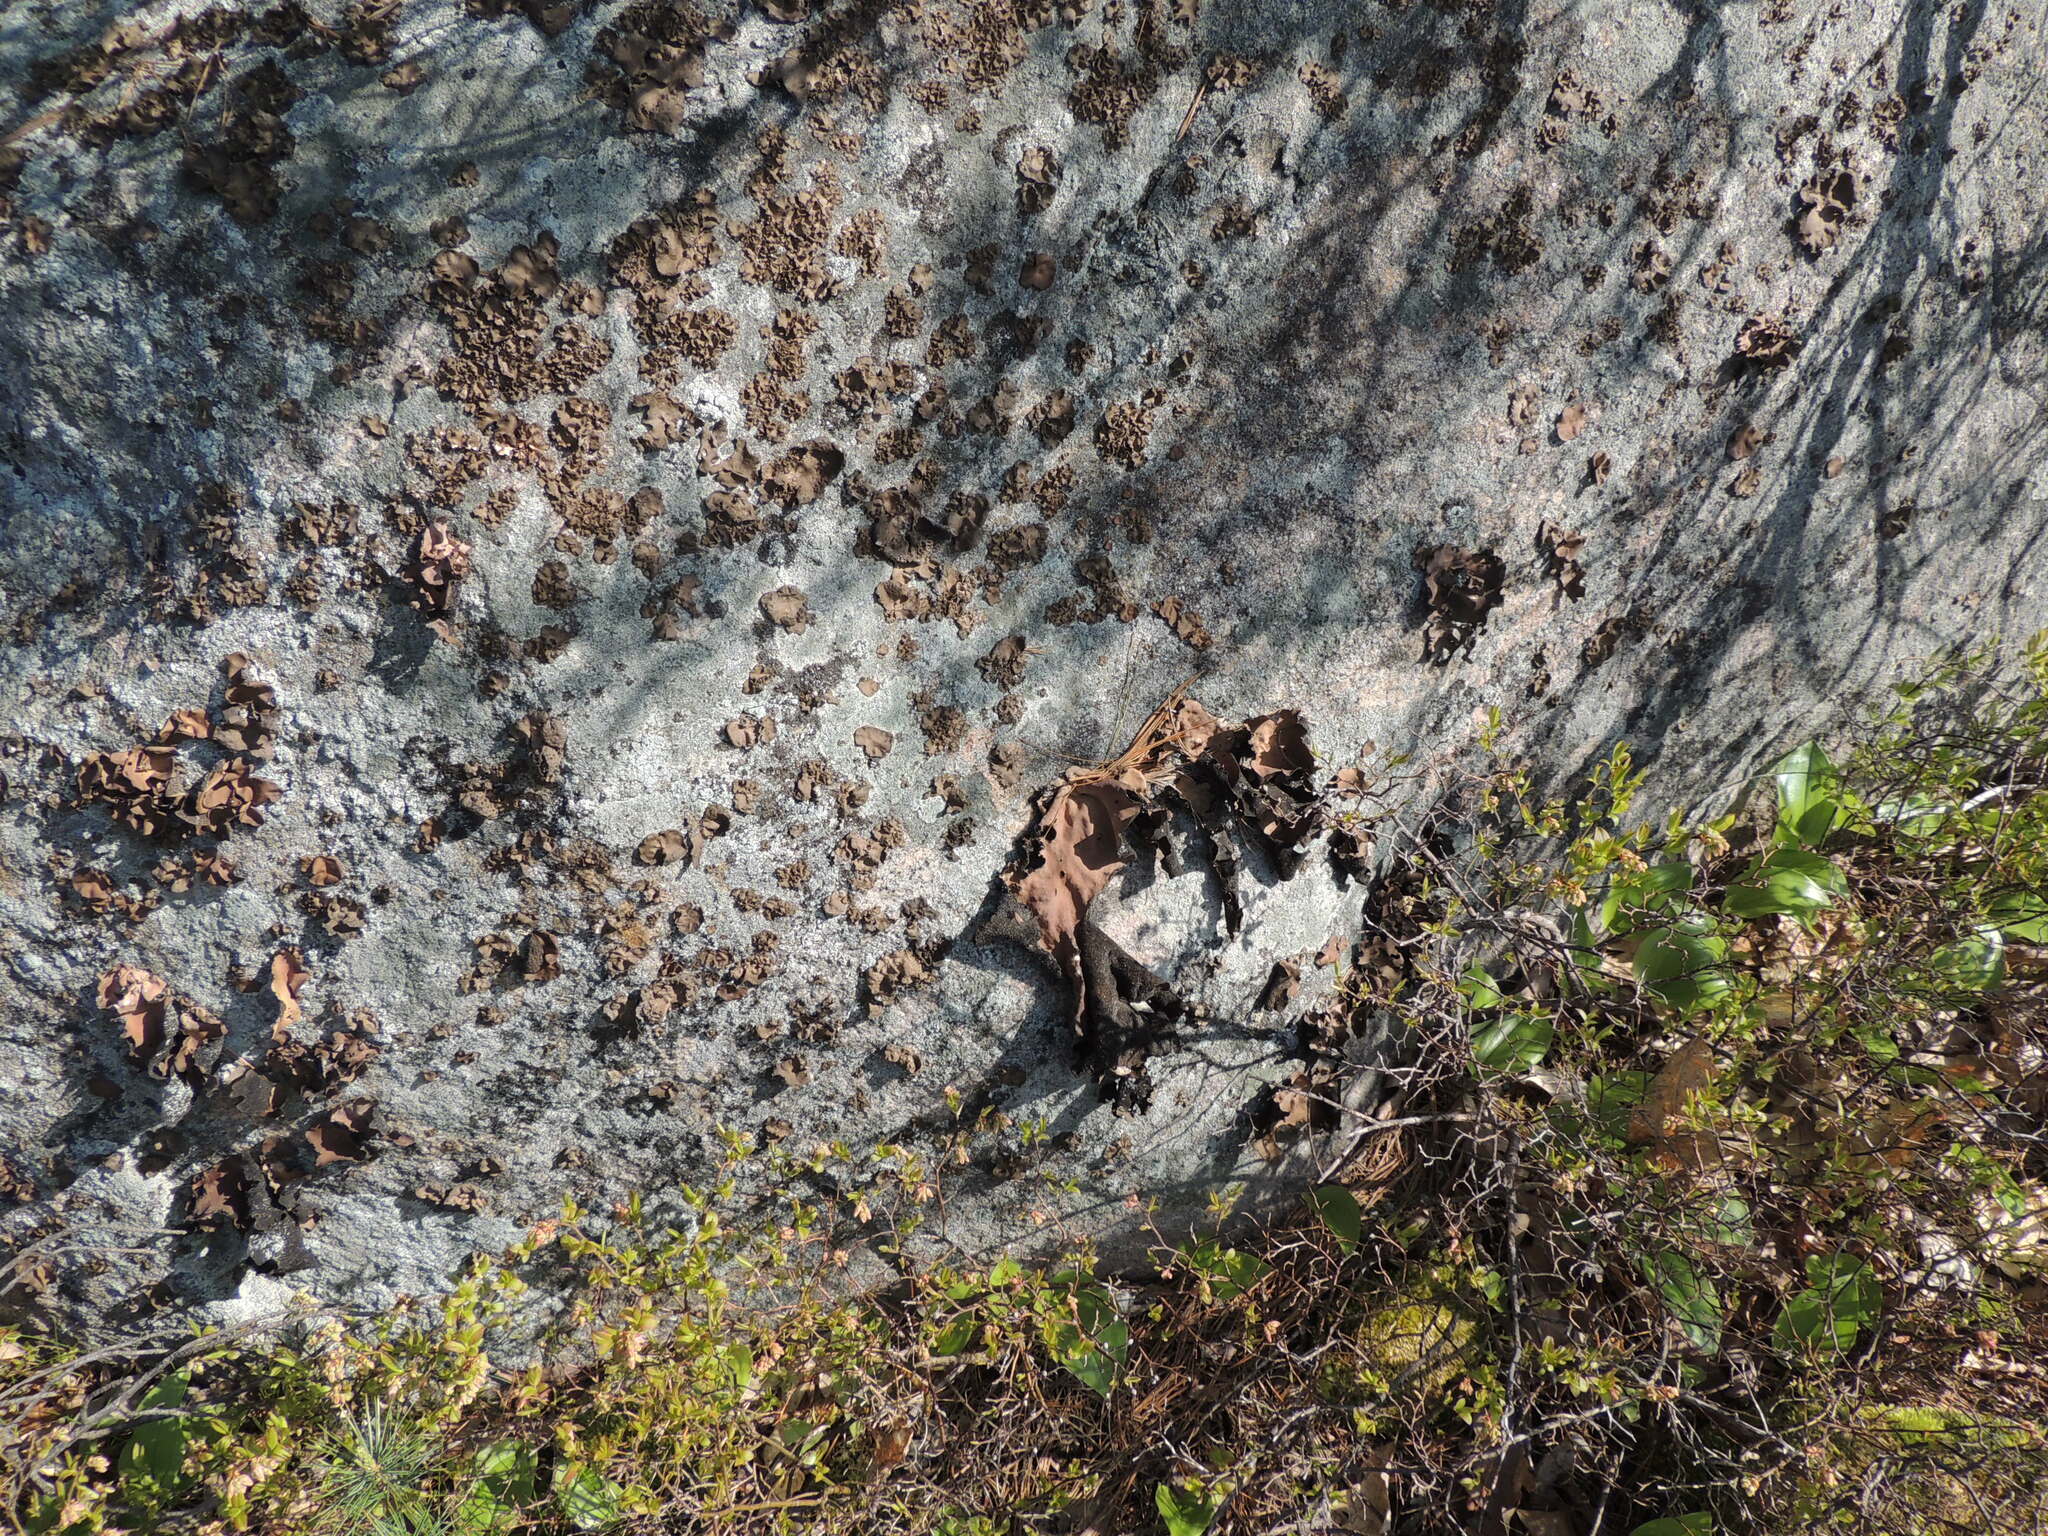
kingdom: Fungi
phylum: Ascomycota
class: Lecanoromycetes
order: Umbilicariales
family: Umbilicariaceae
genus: Umbilicaria
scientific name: Umbilicaria mammulata
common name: Smooth rock tripe
